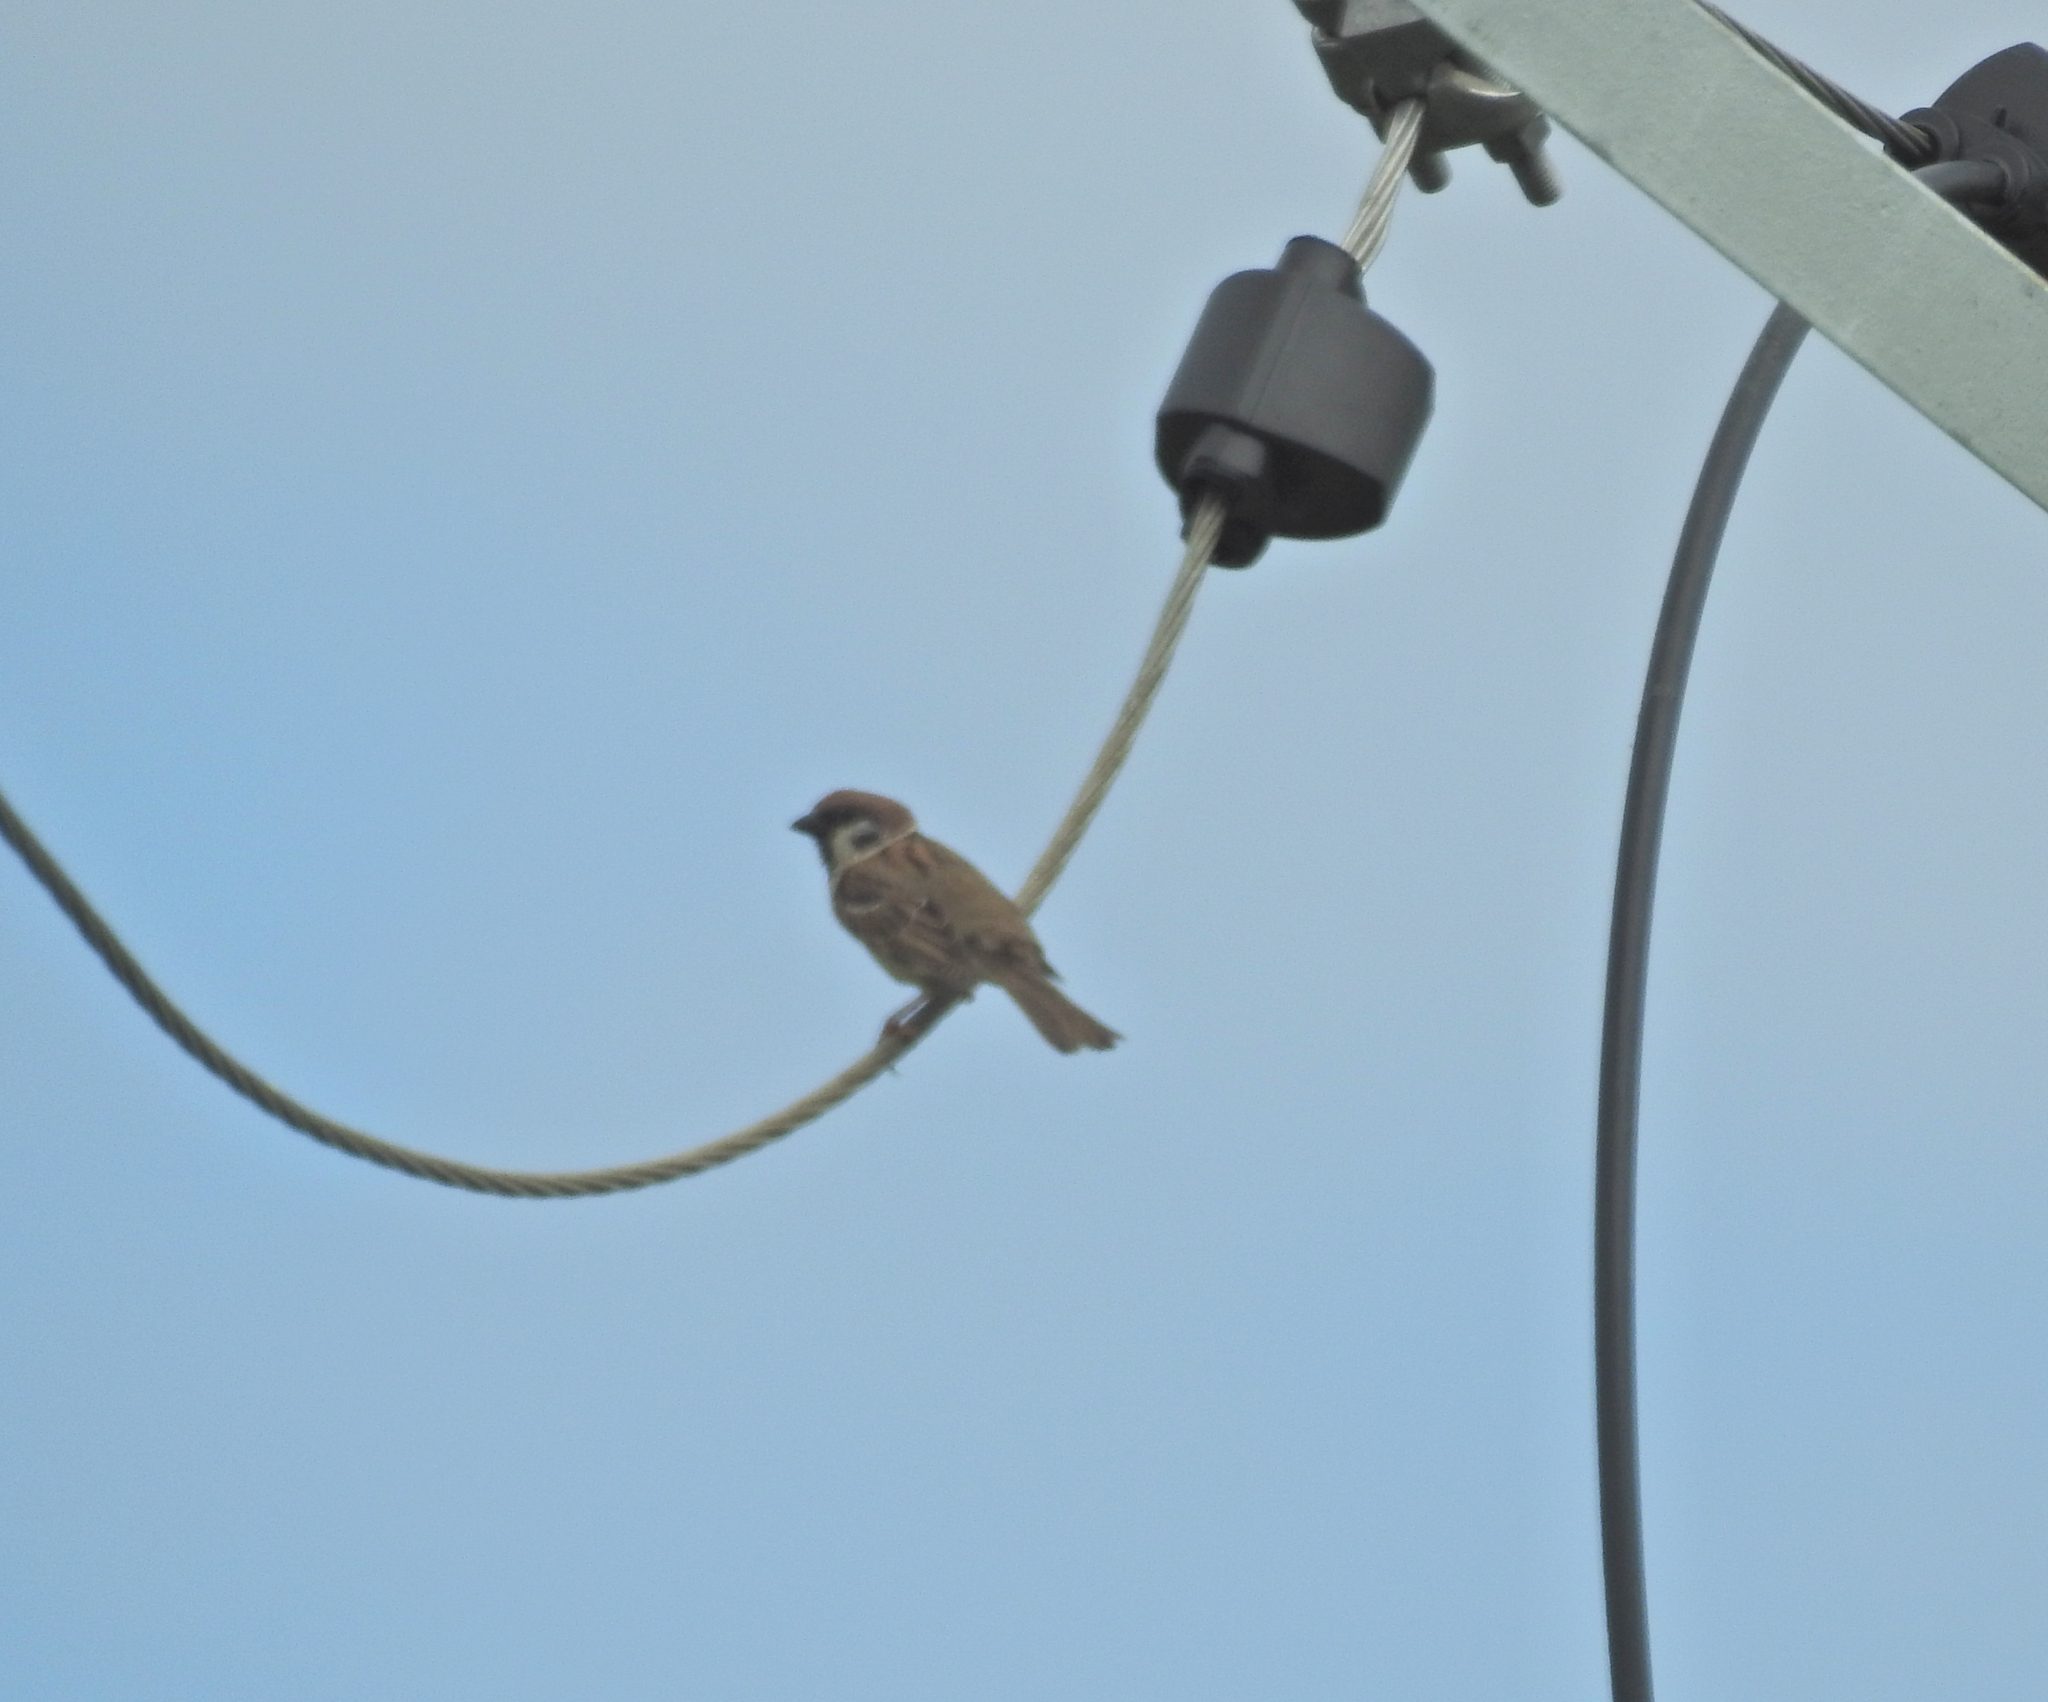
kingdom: Animalia
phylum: Chordata
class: Aves
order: Passeriformes
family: Passeridae
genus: Passer
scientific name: Passer montanus
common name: Eurasian tree sparrow
